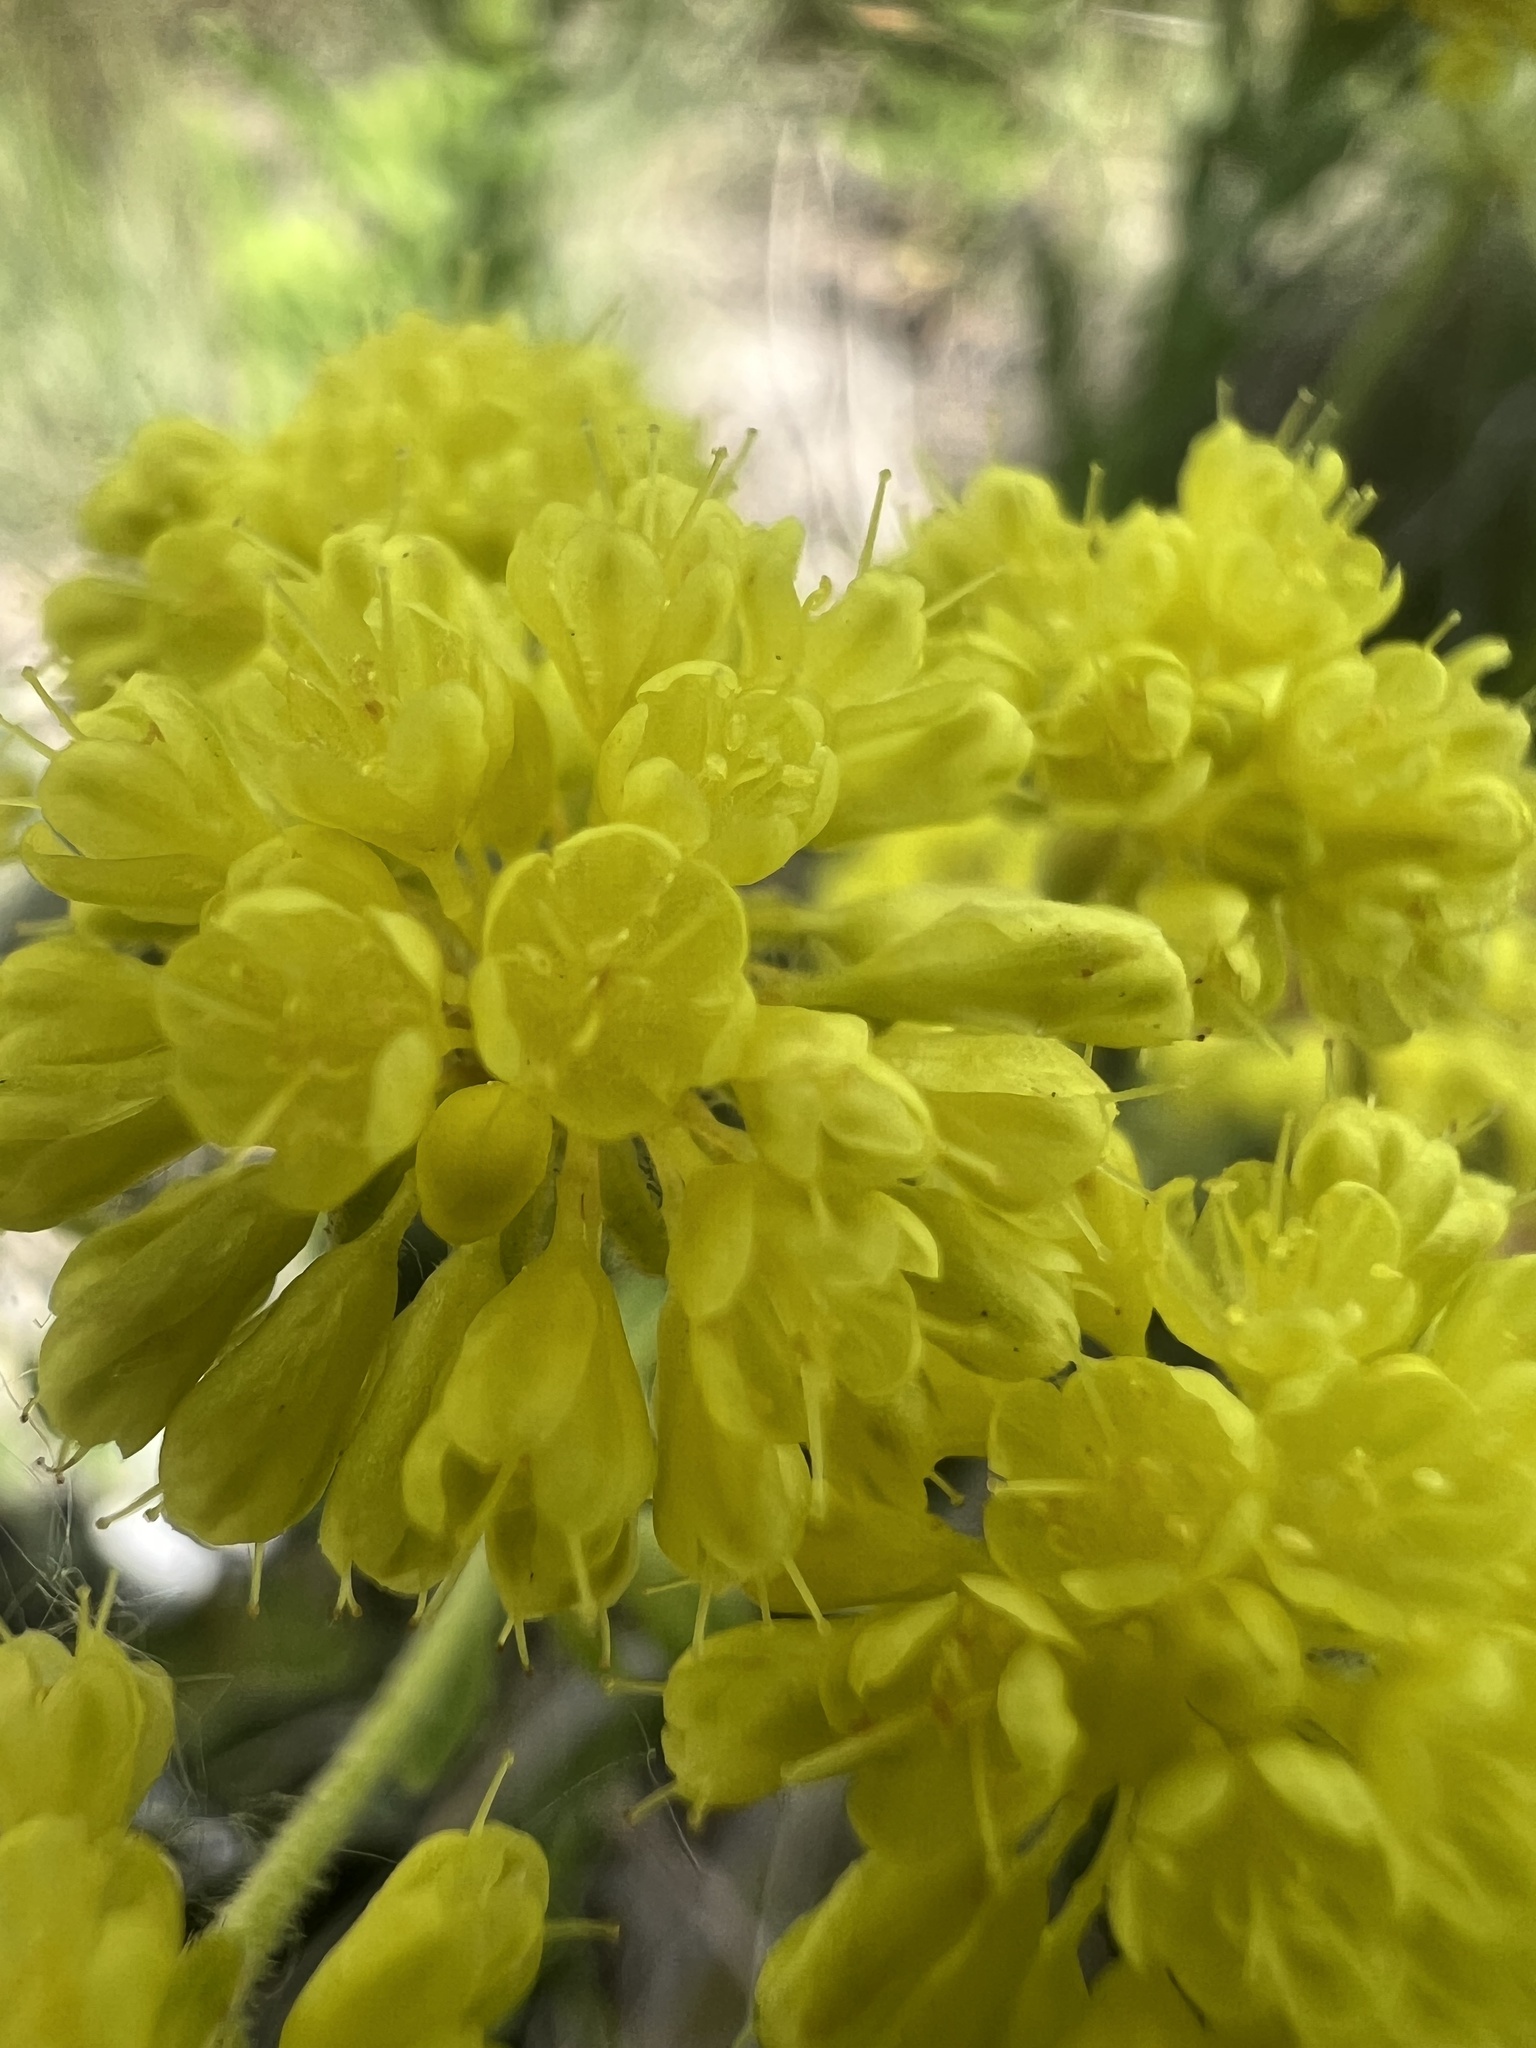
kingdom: Plantae
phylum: Tracheophyta
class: Magnoliopsida
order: Caryophyllales
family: Polygonaceae
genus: Eriogonum
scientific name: Eriogonum umbellatum
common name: Sulfur-buckwheat
